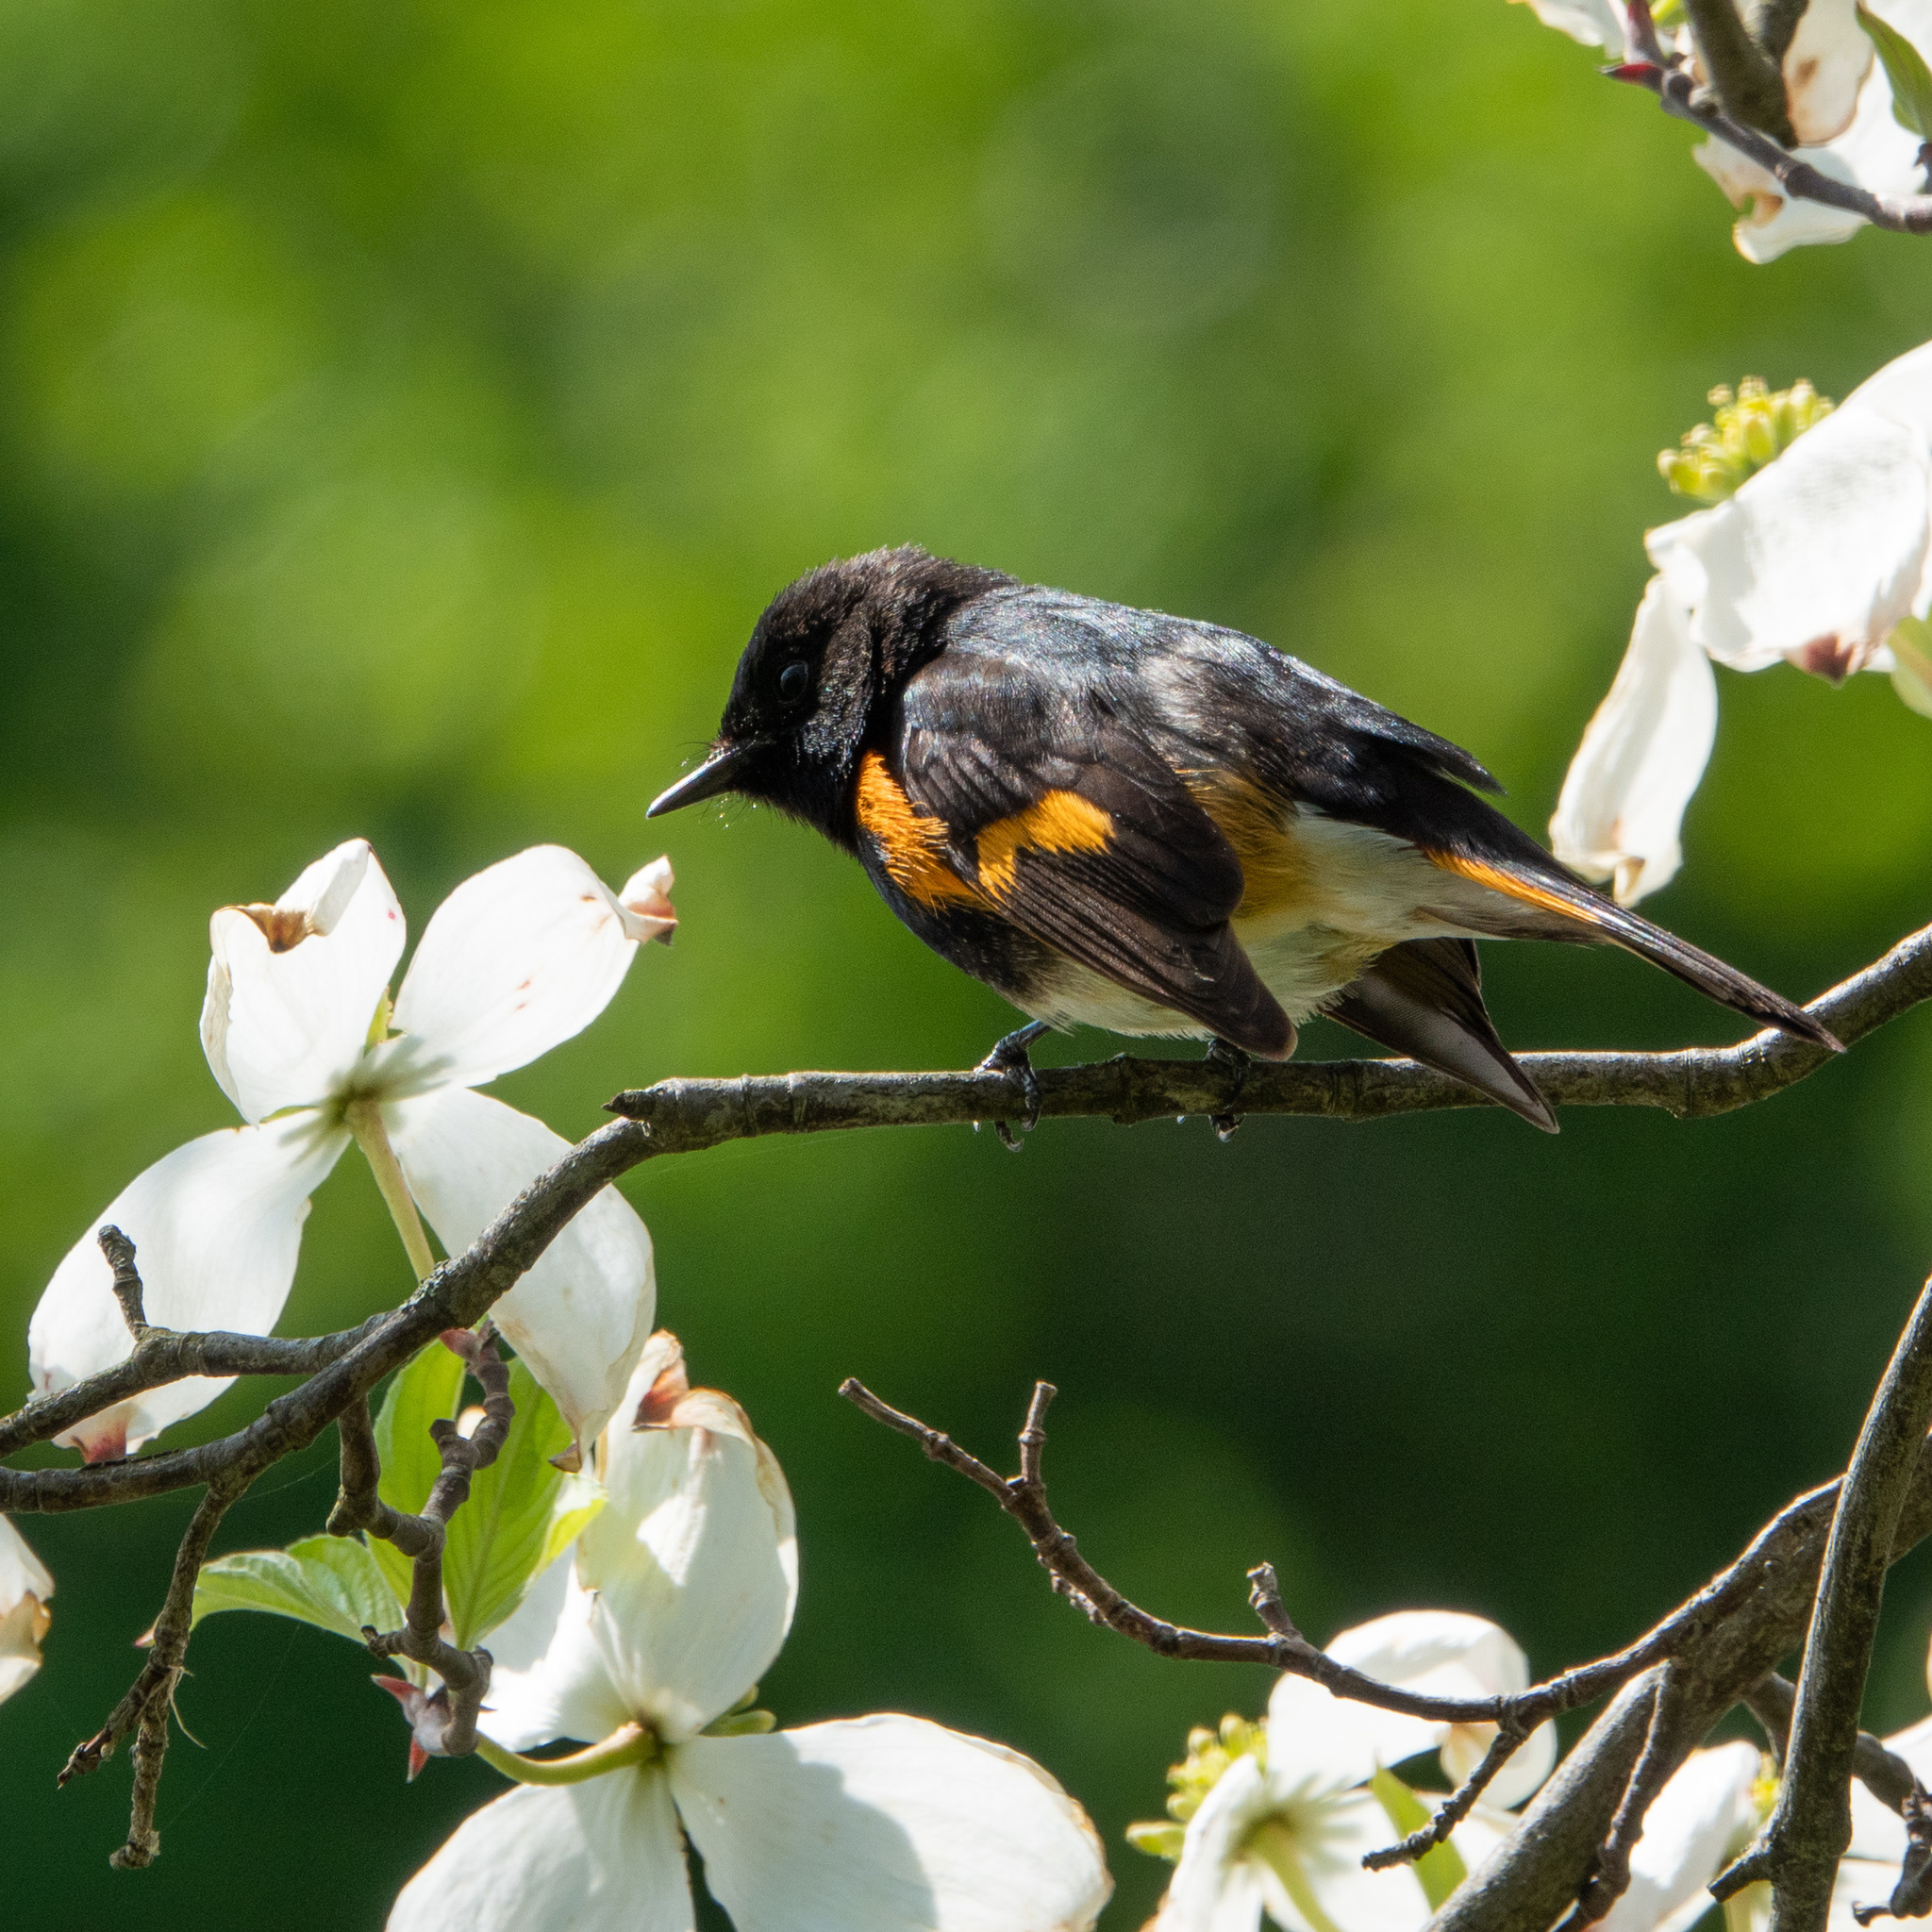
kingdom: Animalia
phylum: Chordata
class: Aves
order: Passeriformes
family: Parulidae
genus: Setophaga
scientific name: Setophaga ruticilla
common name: American redstart
